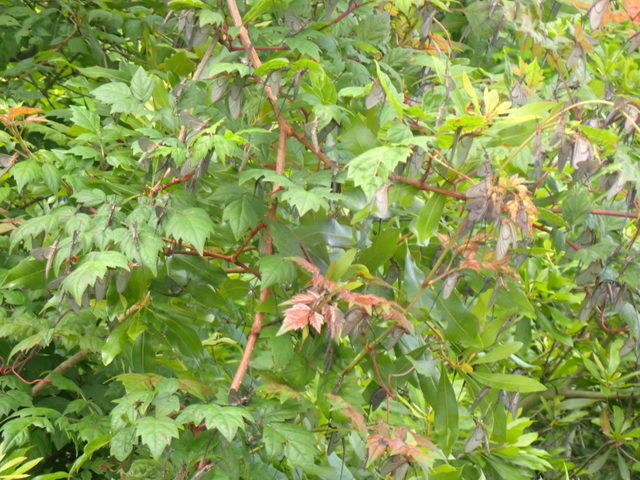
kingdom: Plantae
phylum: Tracheophyta
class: Magnoliopsida
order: Vitales
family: Vitaceae
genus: Nekemias
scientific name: Nekemias arborea
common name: Peppervine
